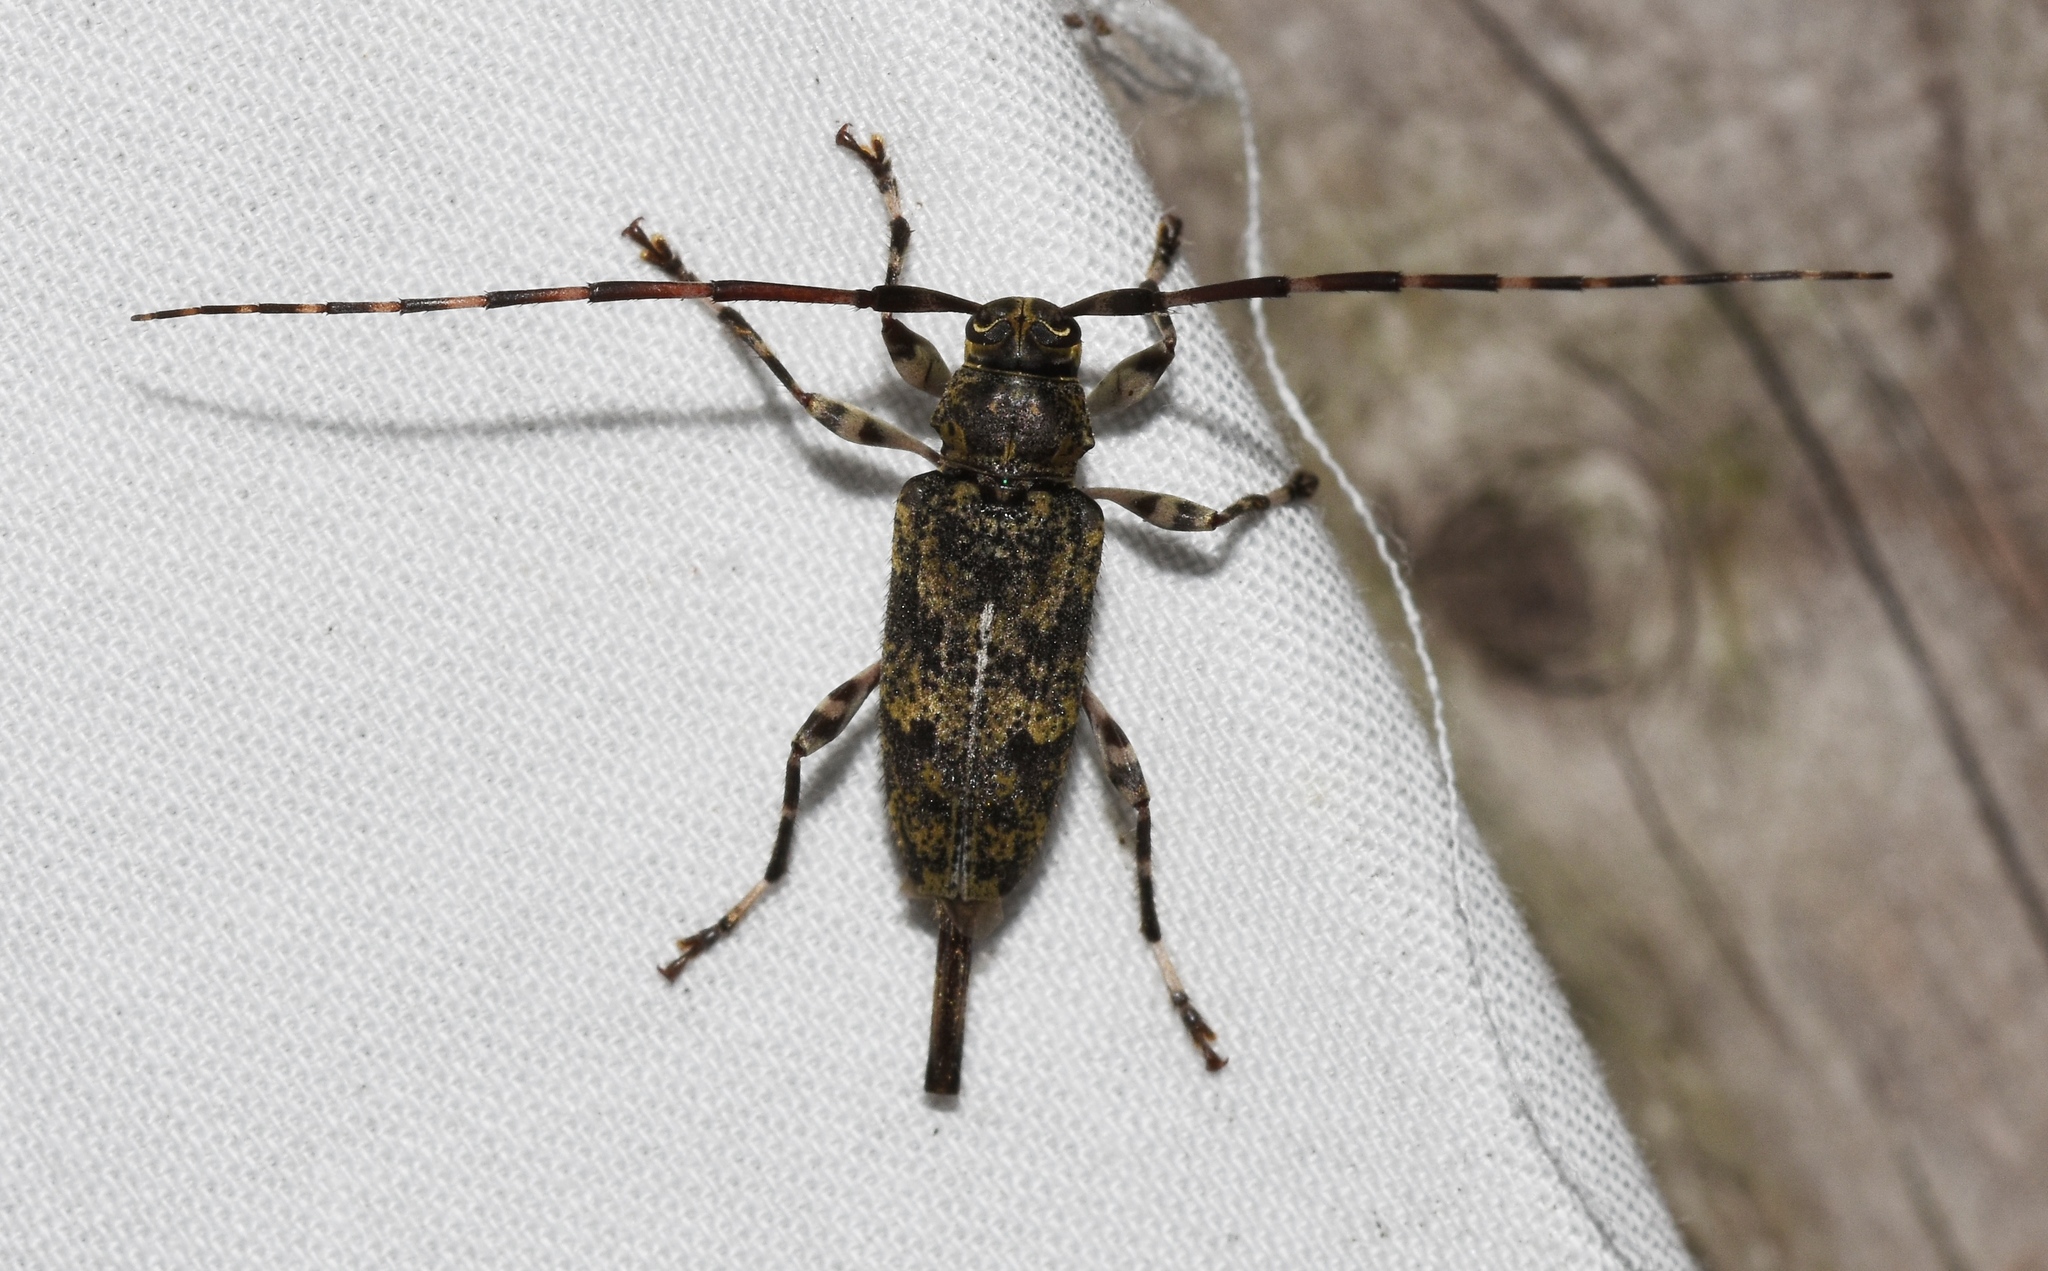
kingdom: Animalia
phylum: Arthropoda
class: Insecta
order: Coleoptera
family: Cerambycidae
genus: Graphisurus
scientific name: Graphisurus fasciatus
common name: Banded graphisurus
